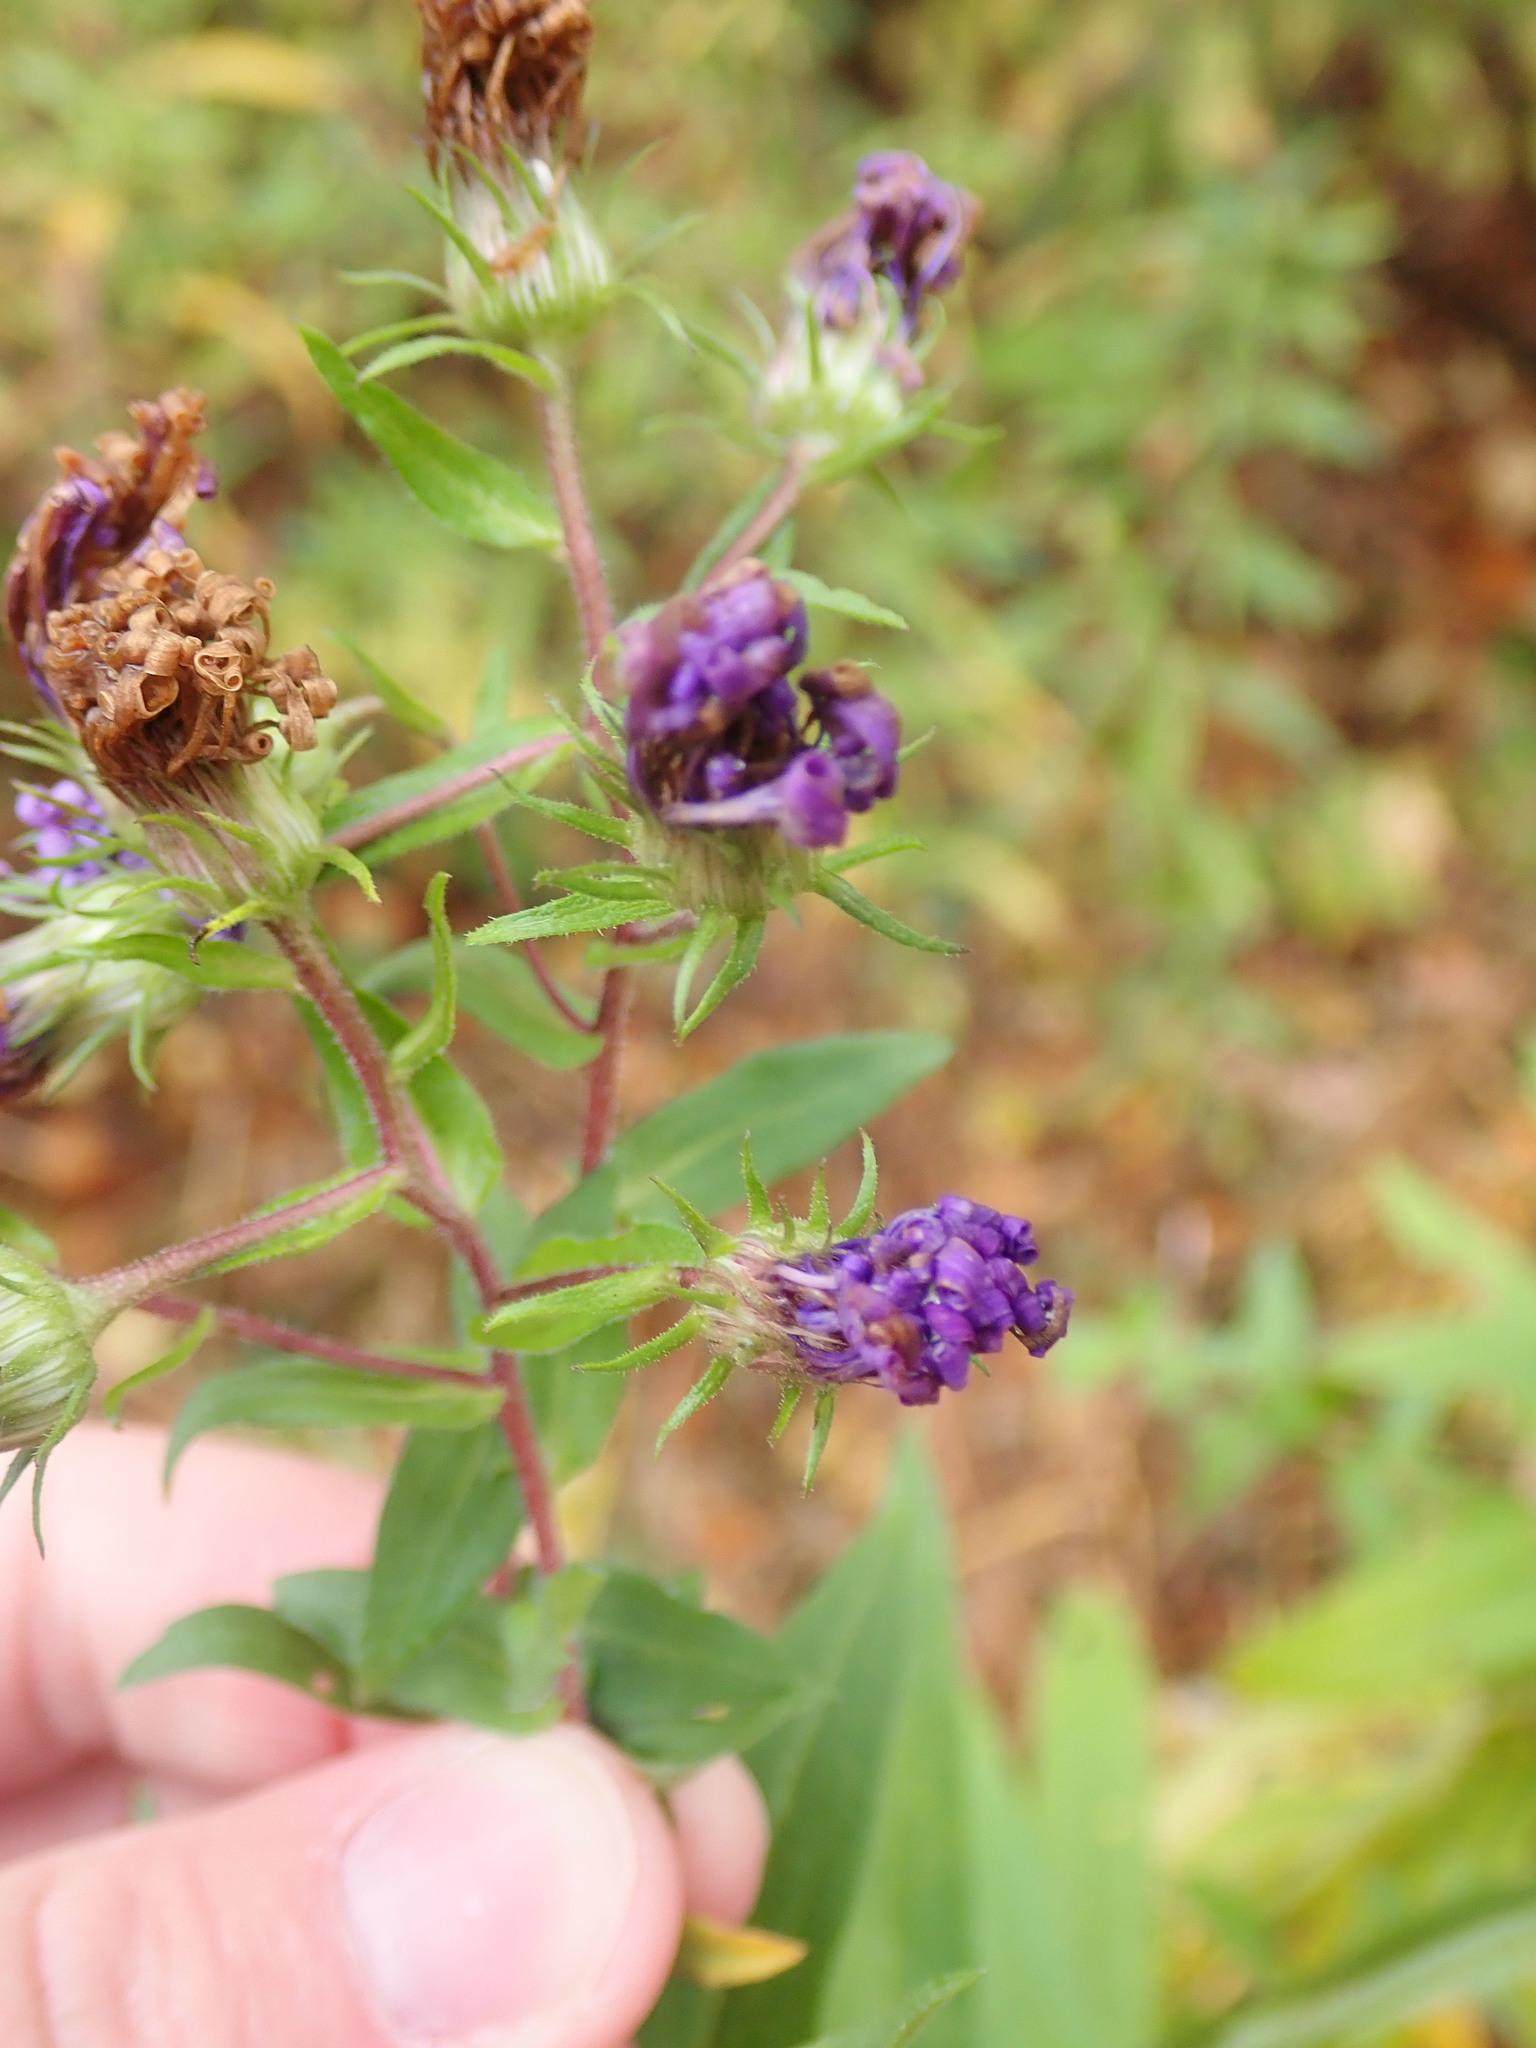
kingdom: Plantae
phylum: Tracheophyta
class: Magnoliopsida
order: Asterales
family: Asteraceae
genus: Symphyotrichum
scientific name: Symphyotrichum novae-angliae
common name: Michaelmas daisy
